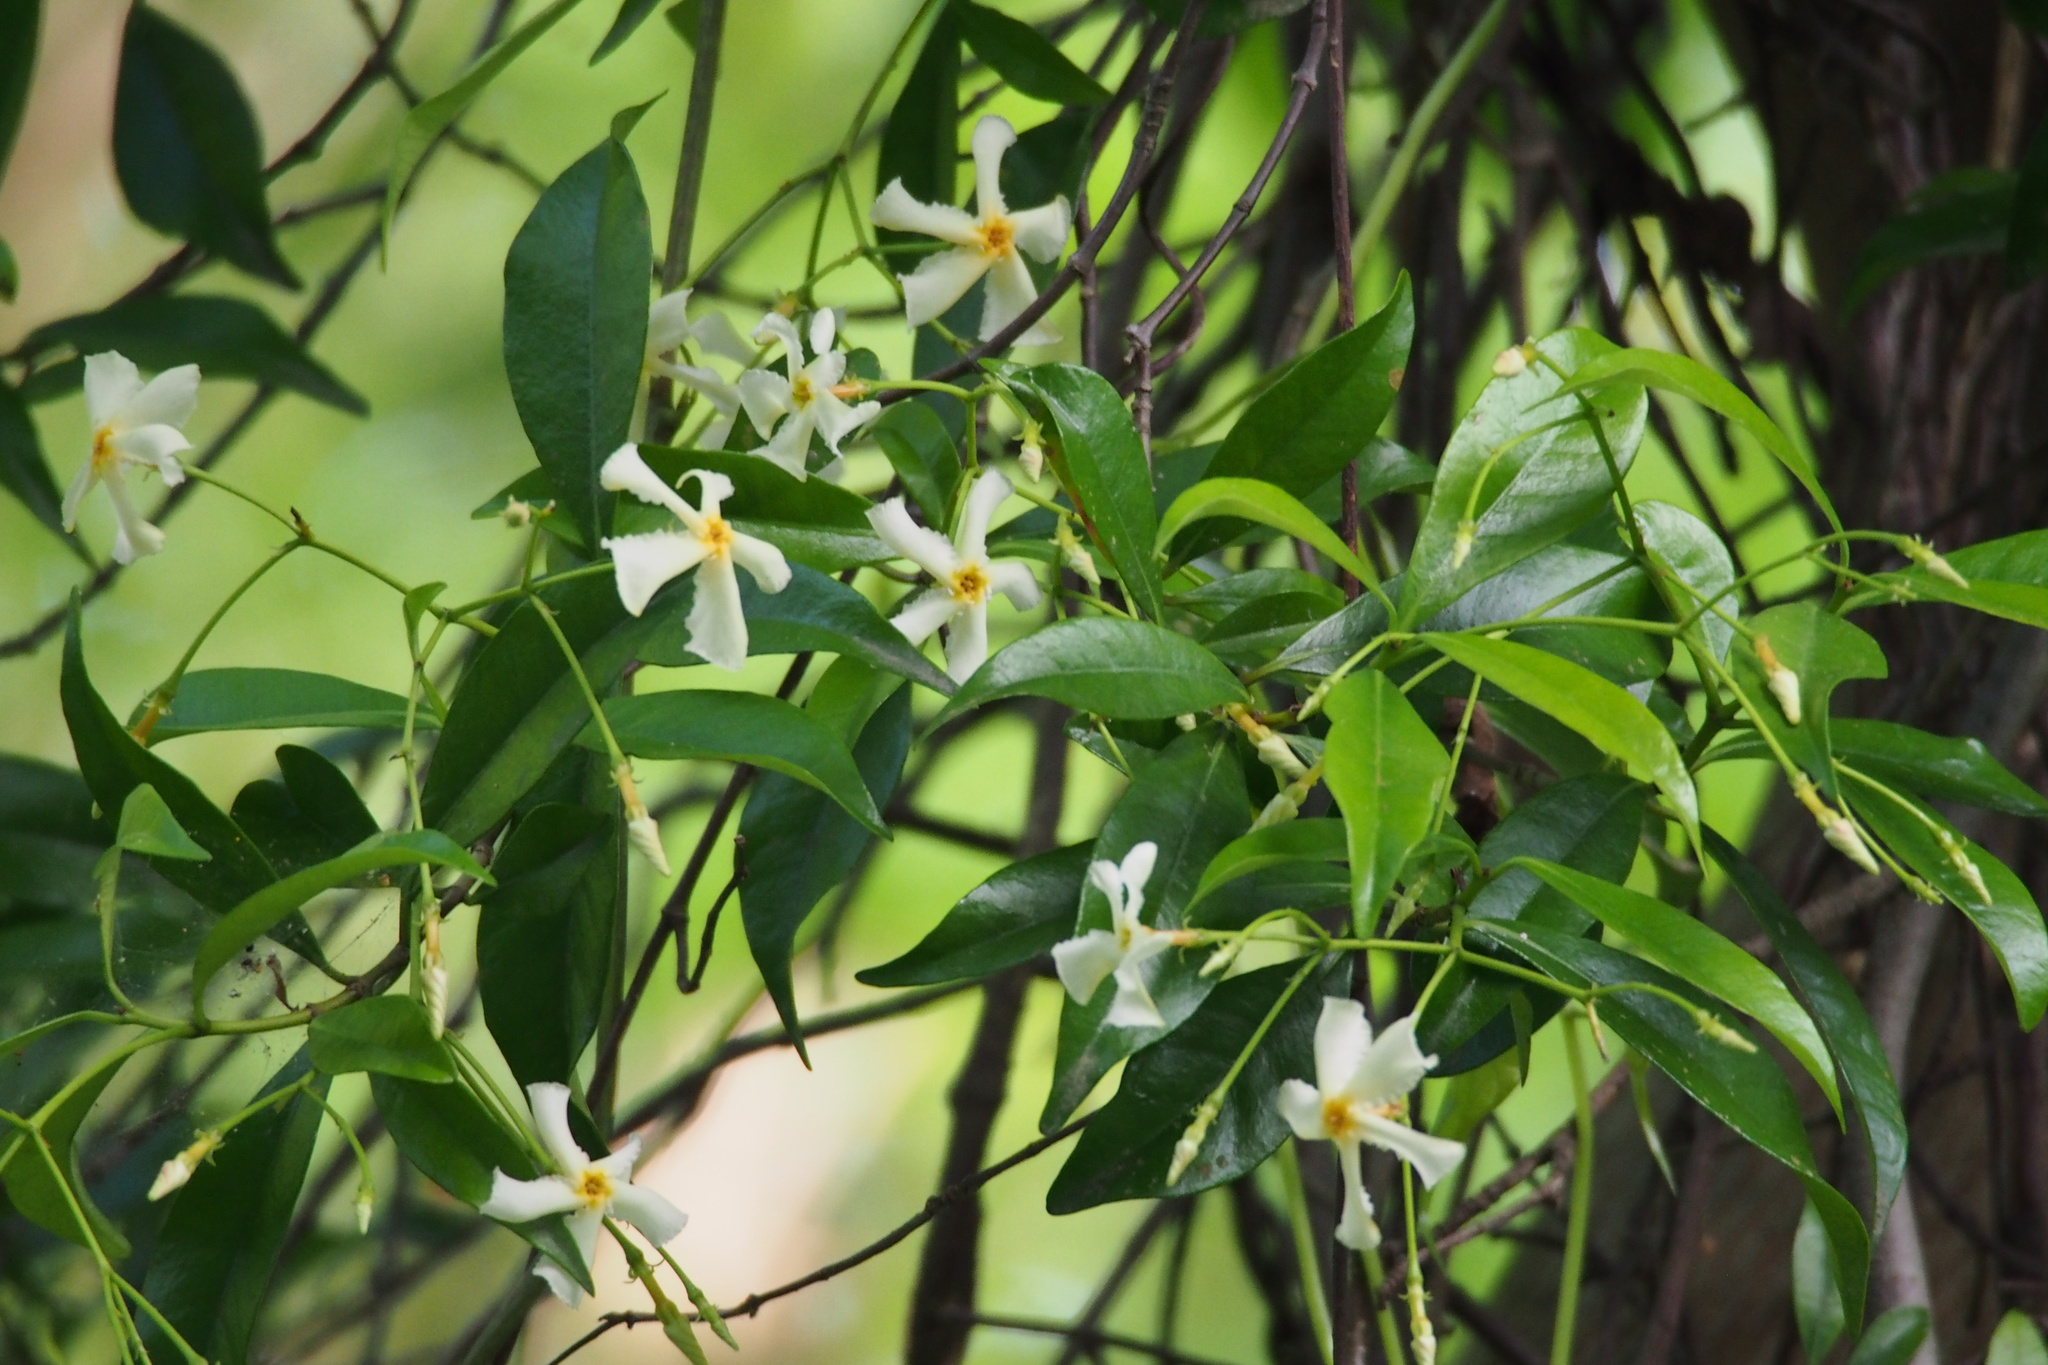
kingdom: Plantae
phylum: Tracheophyta
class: Magnoliopsida
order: Gentianales
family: Apocynaceae
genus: Trachelospermum
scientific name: Trachelospermum asiaticum
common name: Asiatic jasmine
